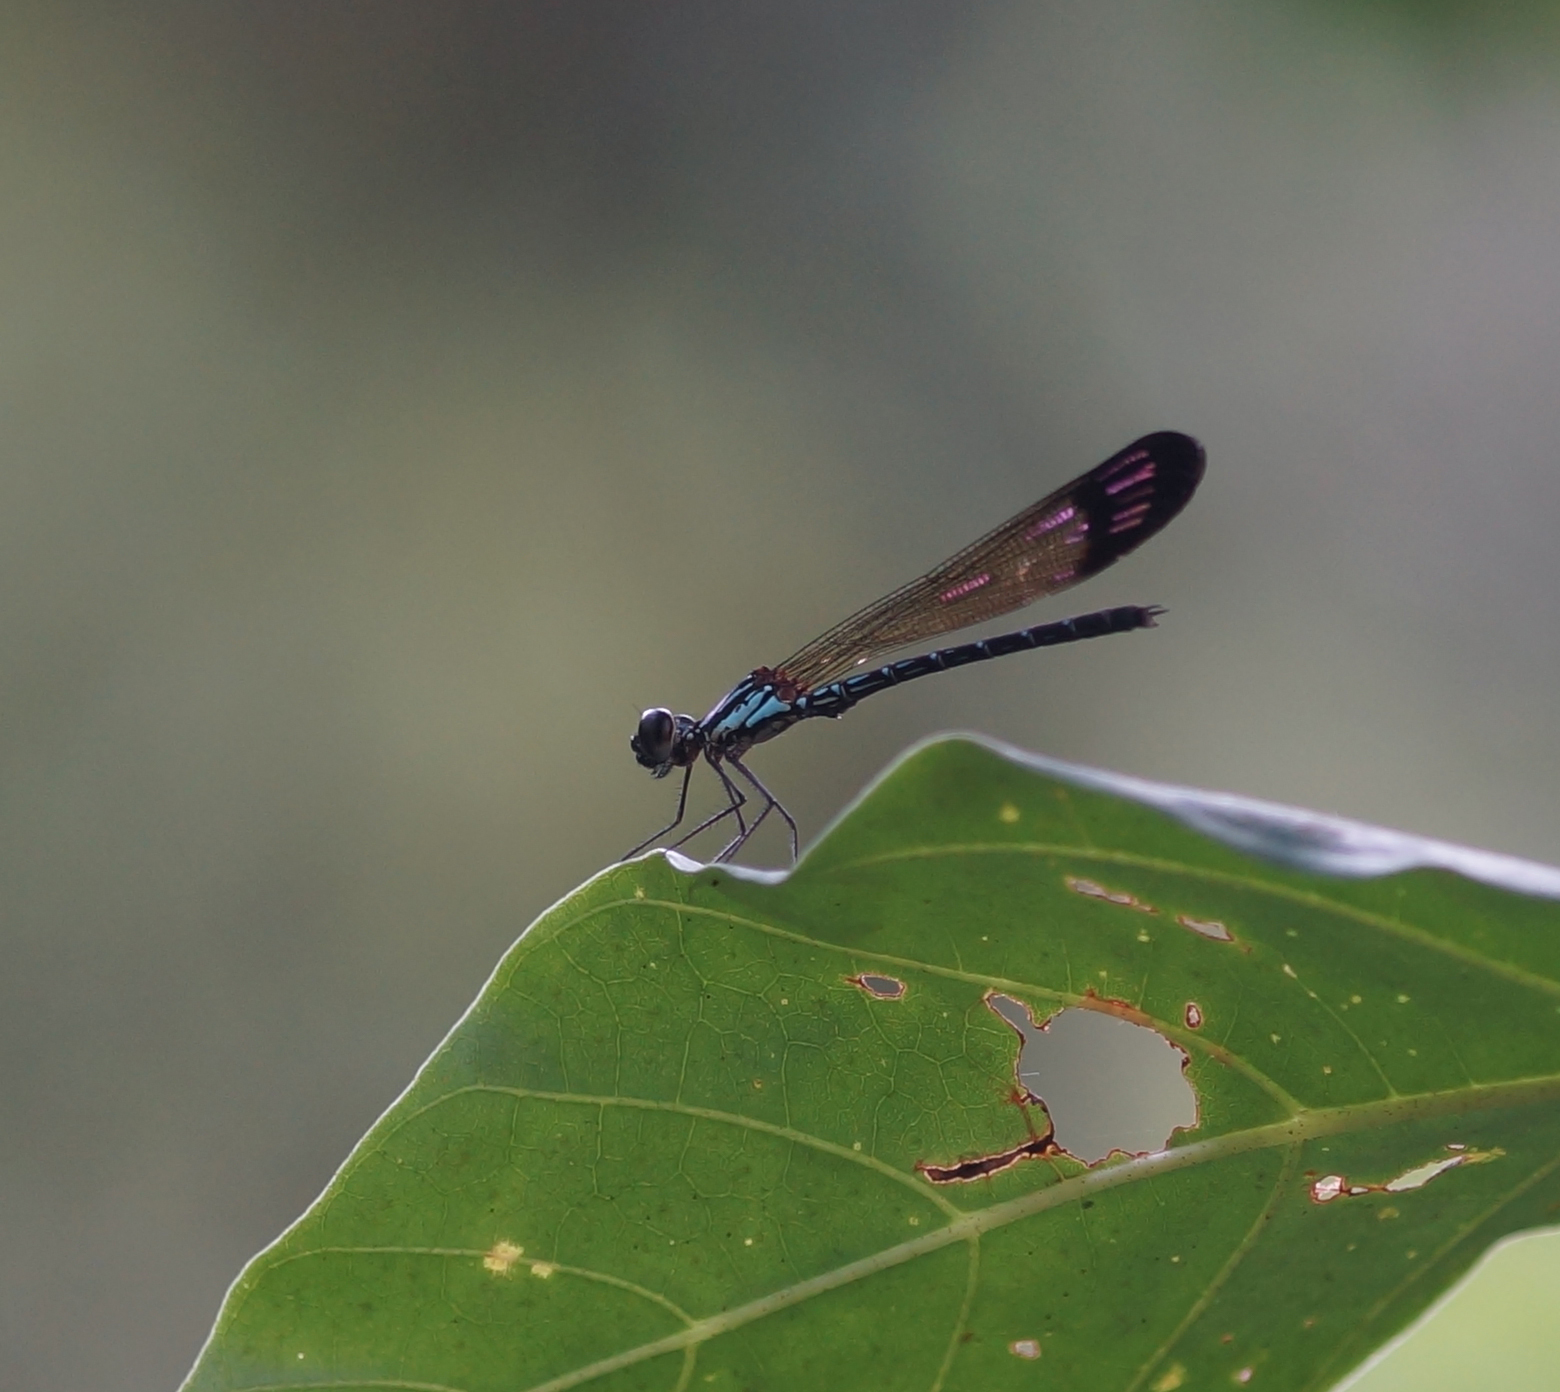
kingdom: Animalia
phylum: Arthropoda
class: Insecta
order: Odonata
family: Chlorocyphidae
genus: Heliocypha
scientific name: Heliocypha biforata
